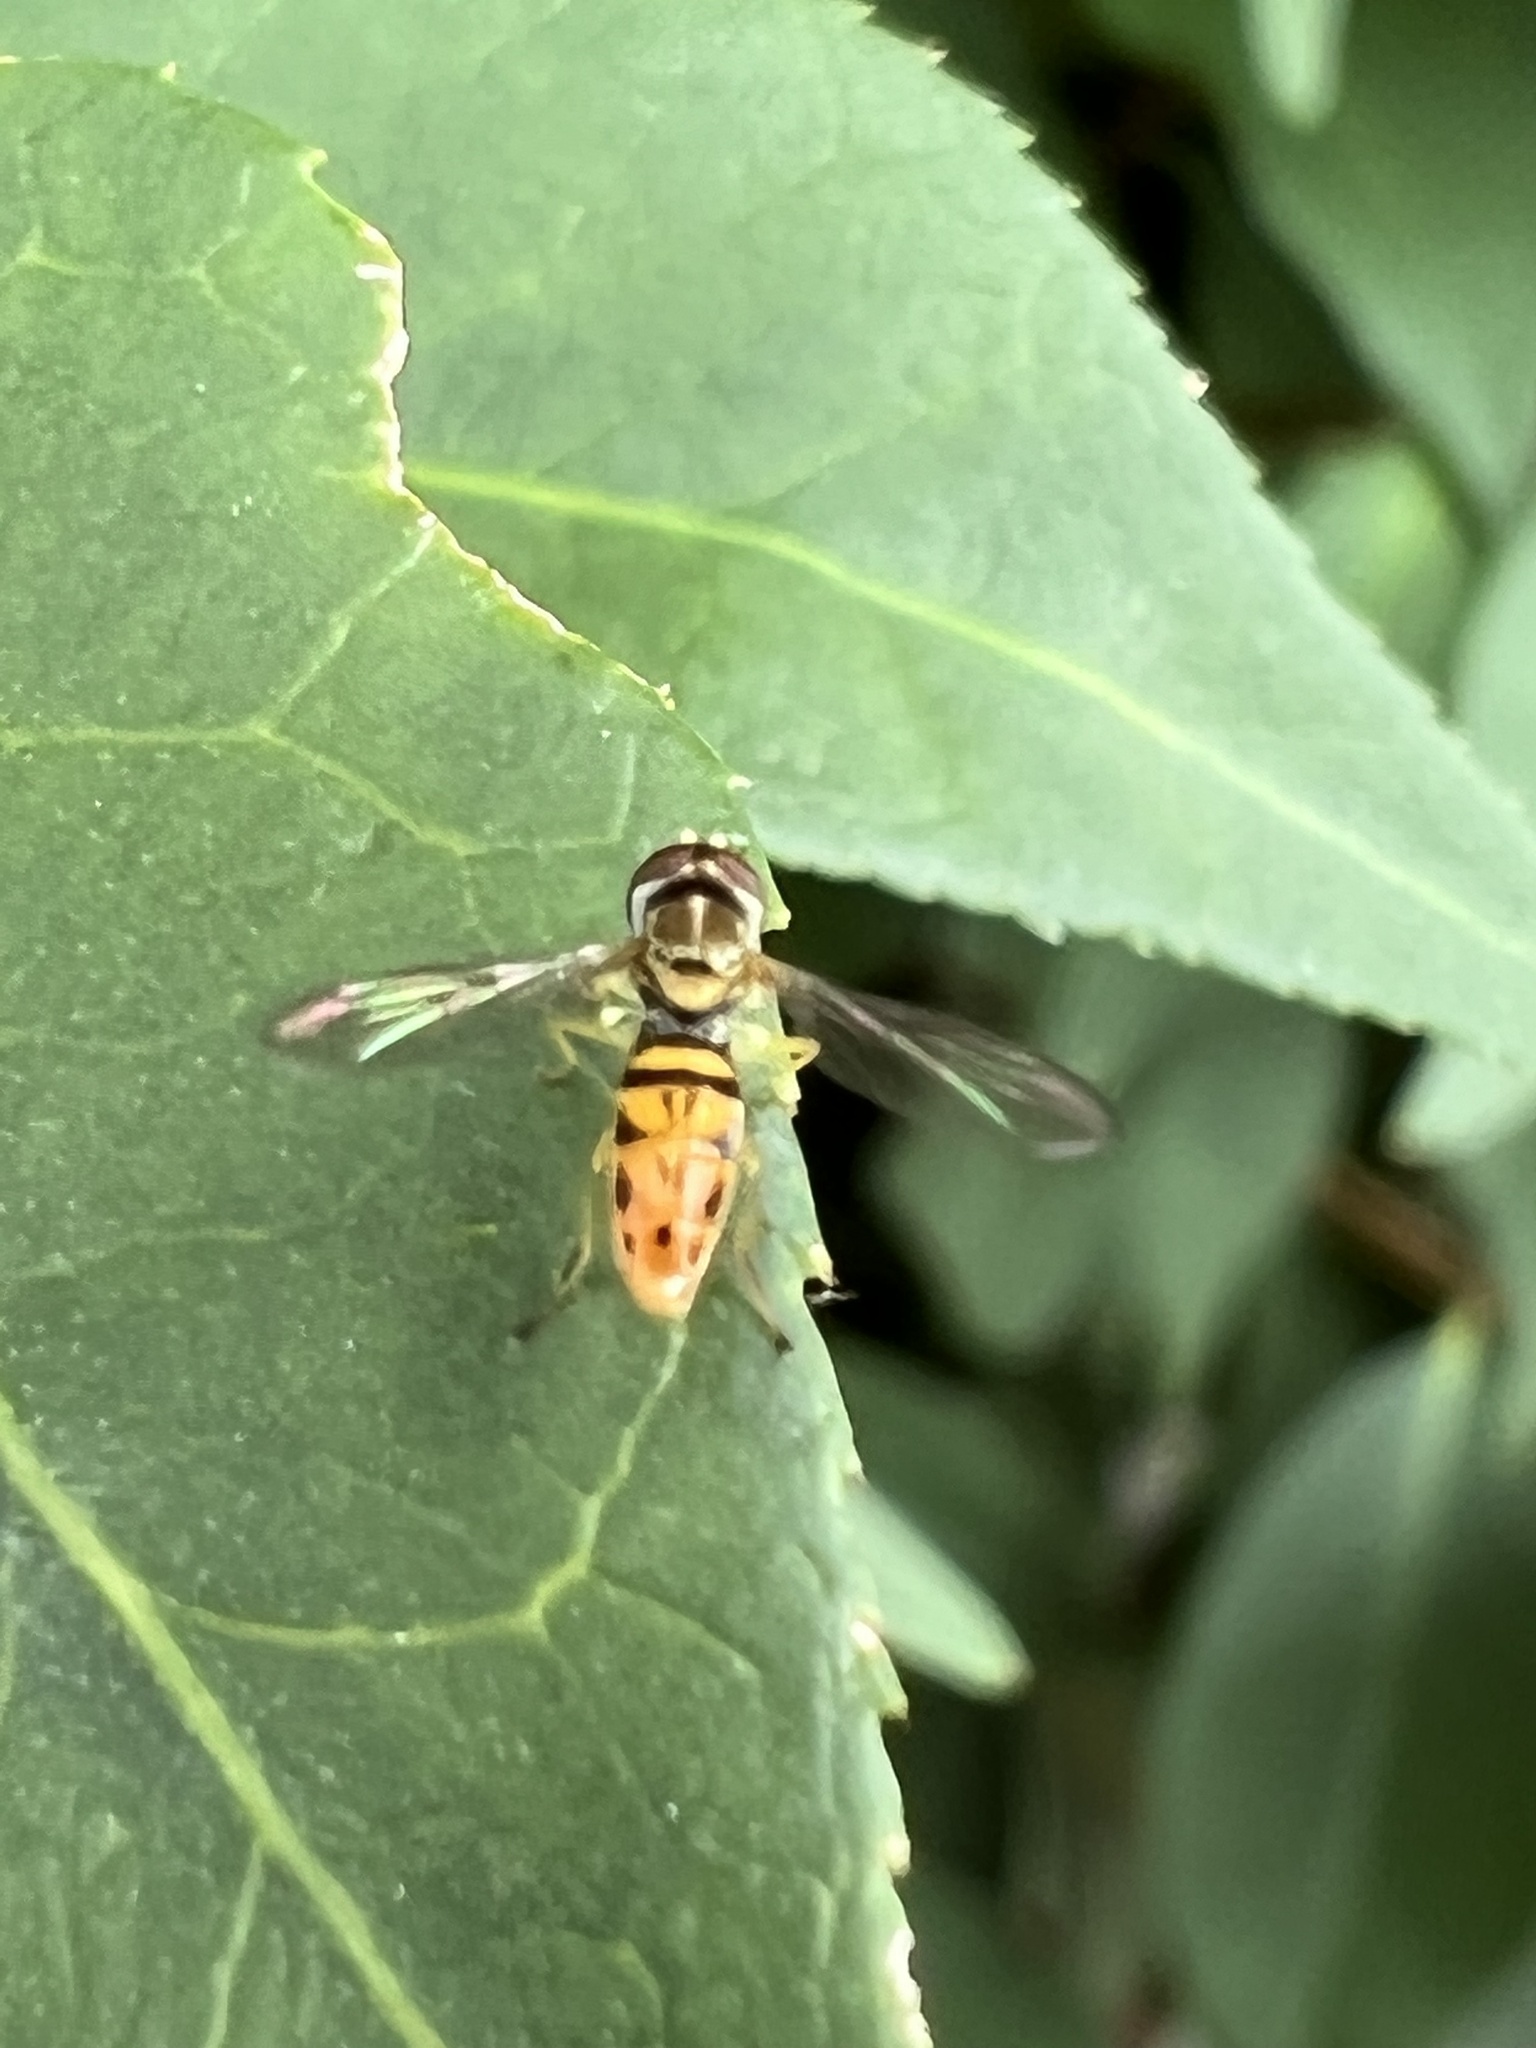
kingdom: Animalia
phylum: Arthropoda
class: Insecta
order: Diptera
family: Syrphidae
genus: Toxomerus
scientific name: Toxomerus marginatus
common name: Syrphid fly
